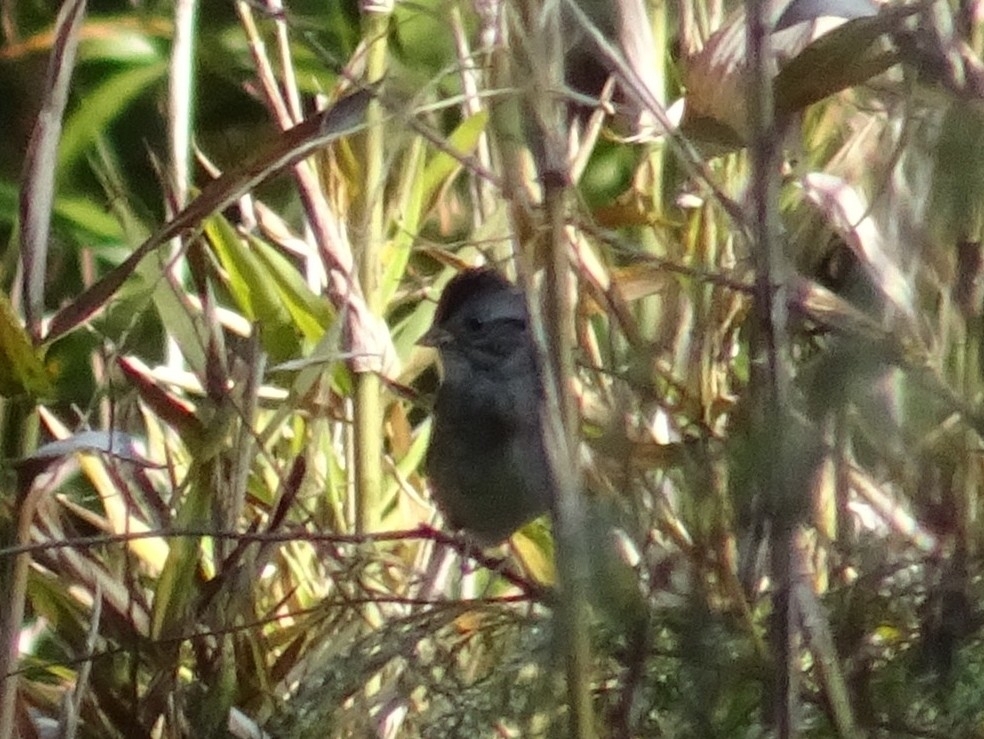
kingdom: Animalia
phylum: Chordata
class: Aves
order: Passeriformes
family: Passerellidae
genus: Melospiza
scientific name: Melospiza georgiana
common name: Swamp sparrow
